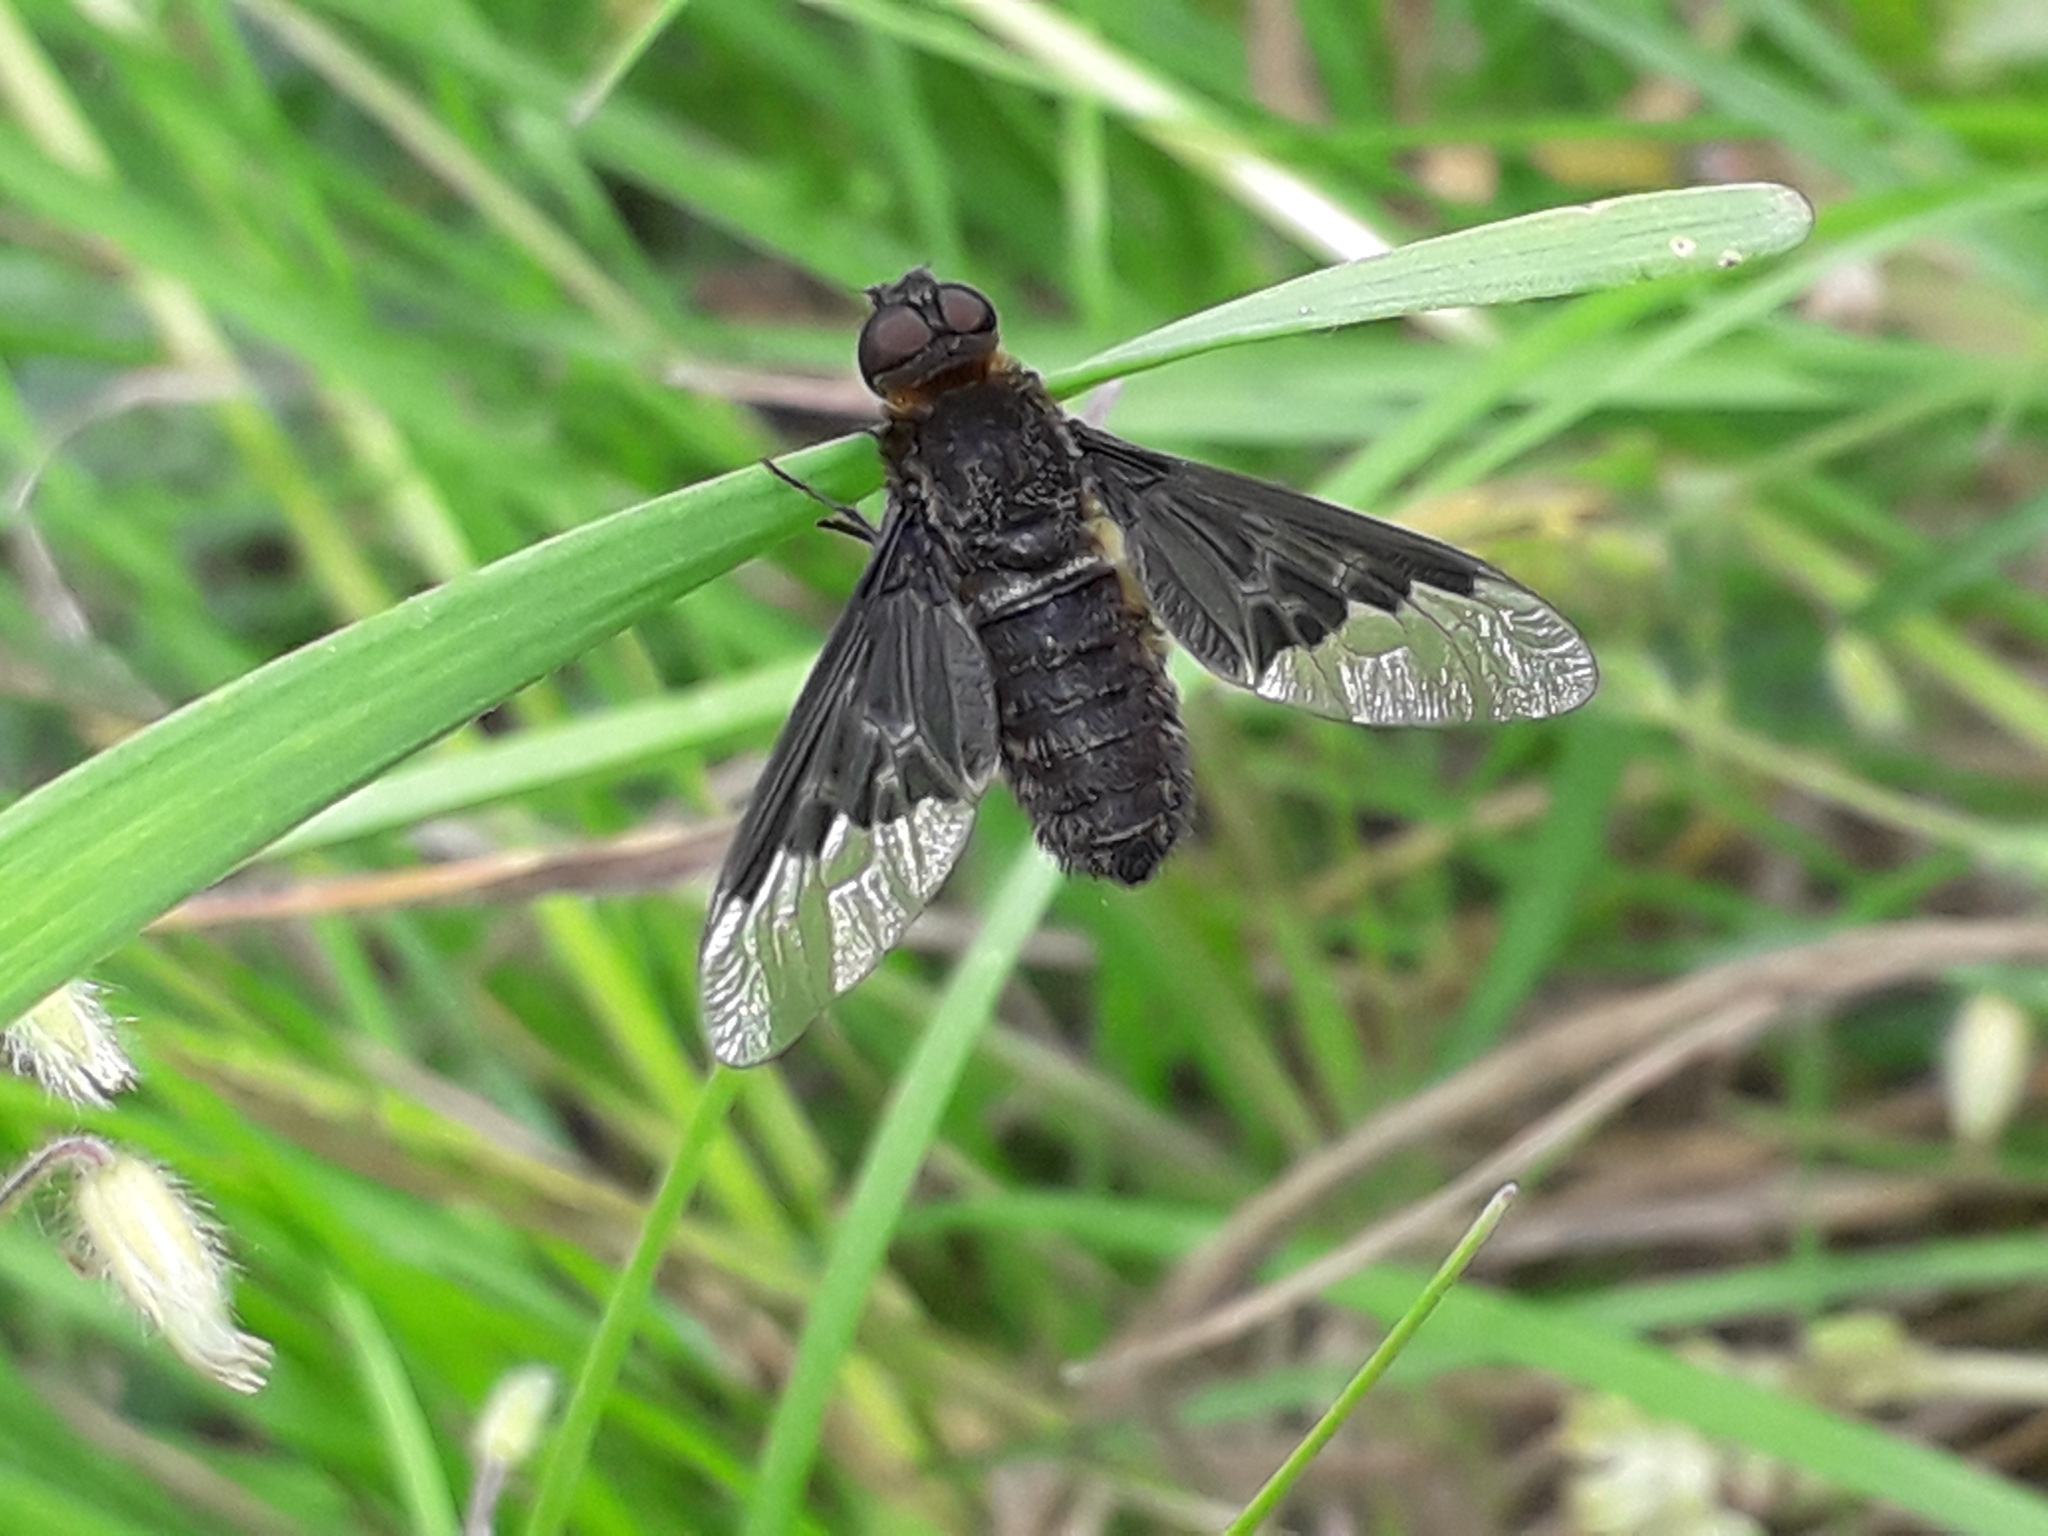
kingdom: Animalia
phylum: Arthropoda
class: Insecta
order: Diptera
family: Bombyliidae
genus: Hemipenthes
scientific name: Hemipenthes morio
